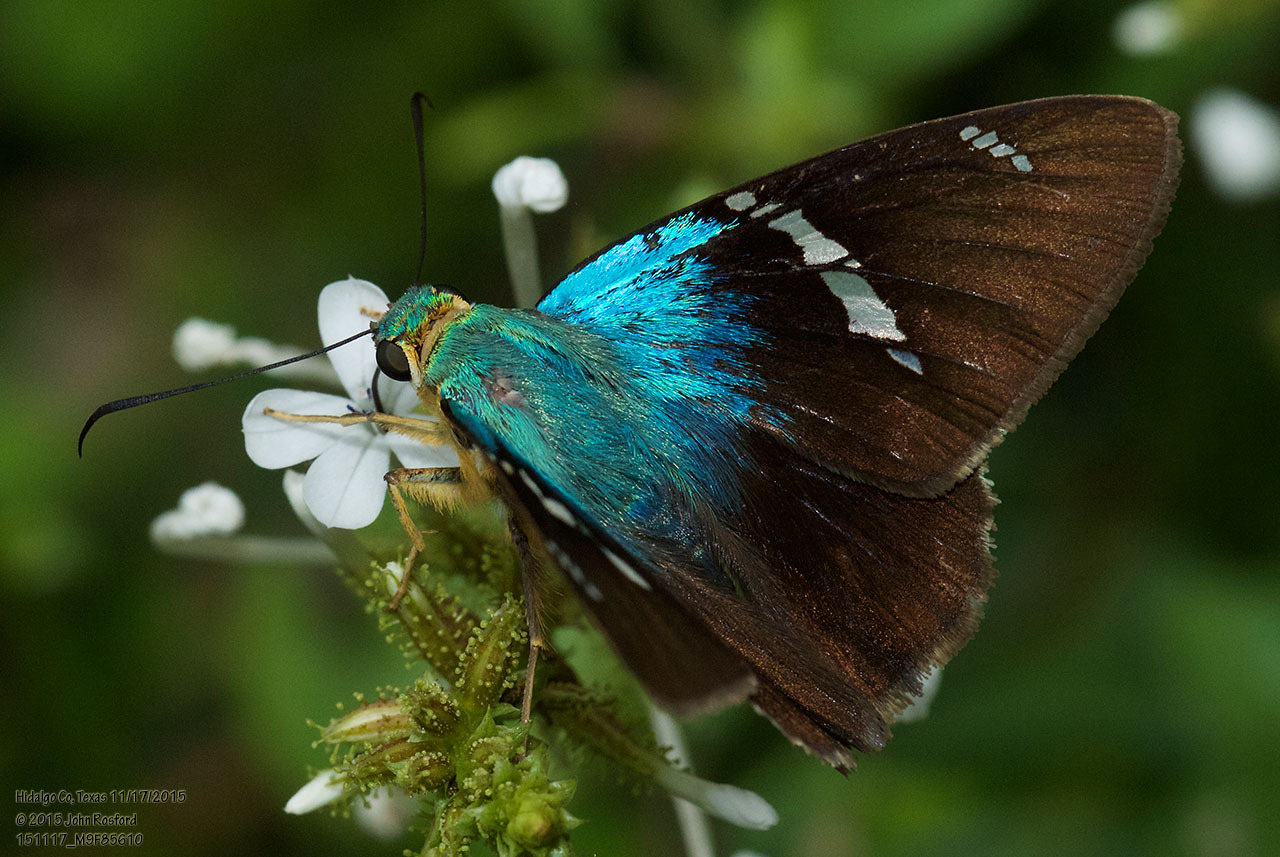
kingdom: Animalia
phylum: Arthropoda
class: Insecta
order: Lepidoptera
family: Hesperiidae
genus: Astraptes
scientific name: Astraptes fulgerator
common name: Two-barred flasher
